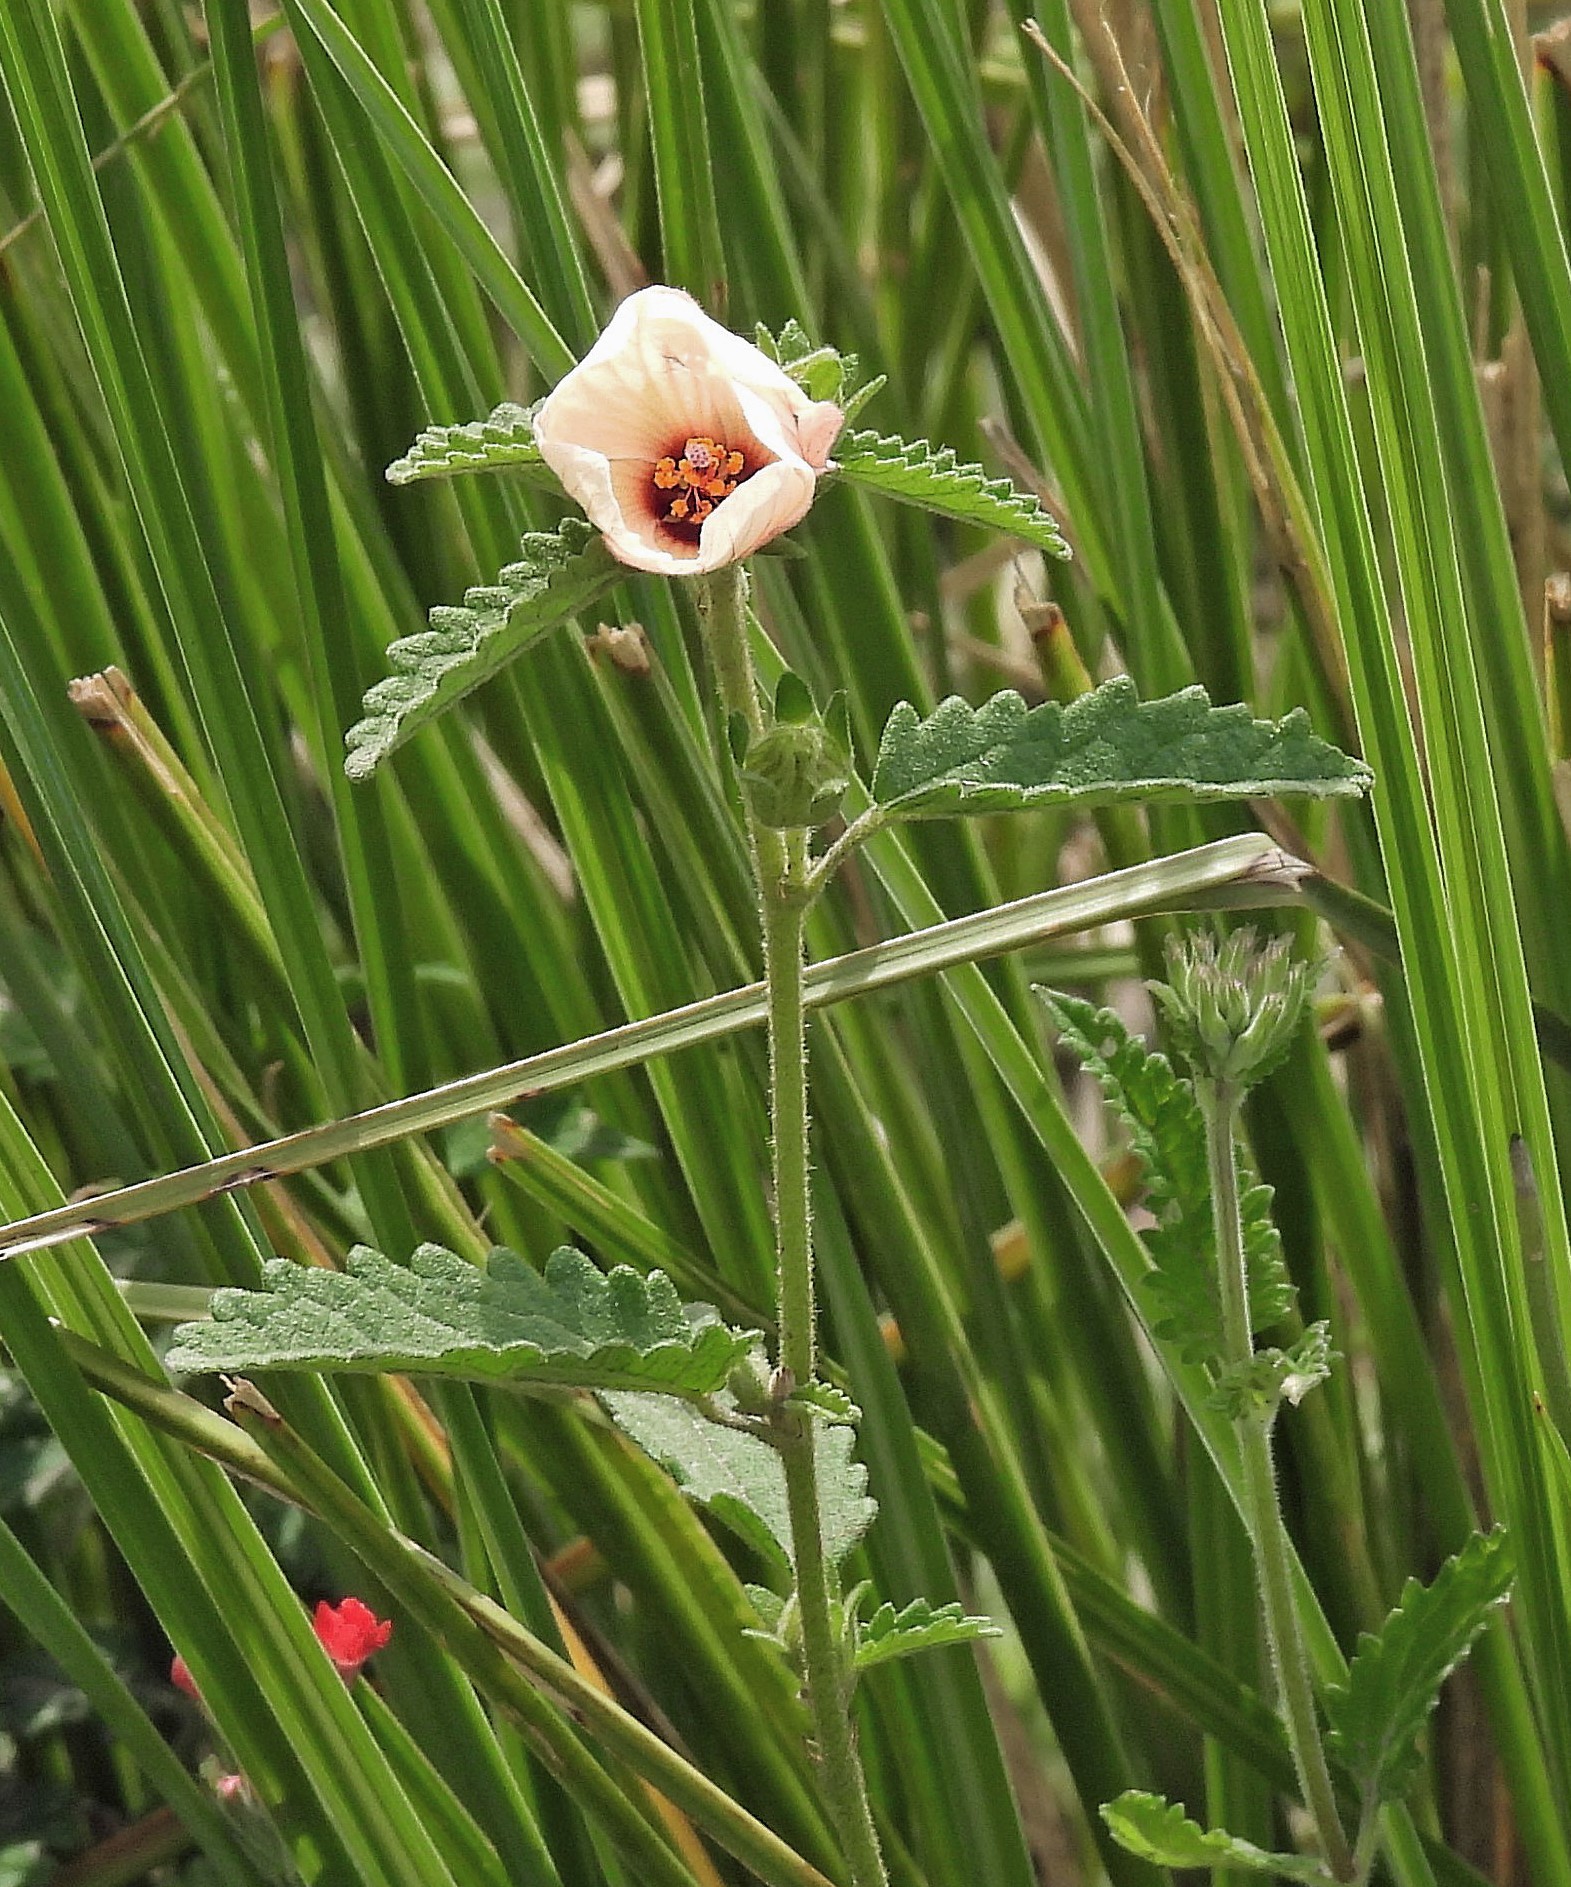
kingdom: Plantae
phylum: Tracheophyta
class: Magnoliopsida
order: Malvales
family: Malvaceae
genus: Pavonia
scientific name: Pavonia betonicaefolia
